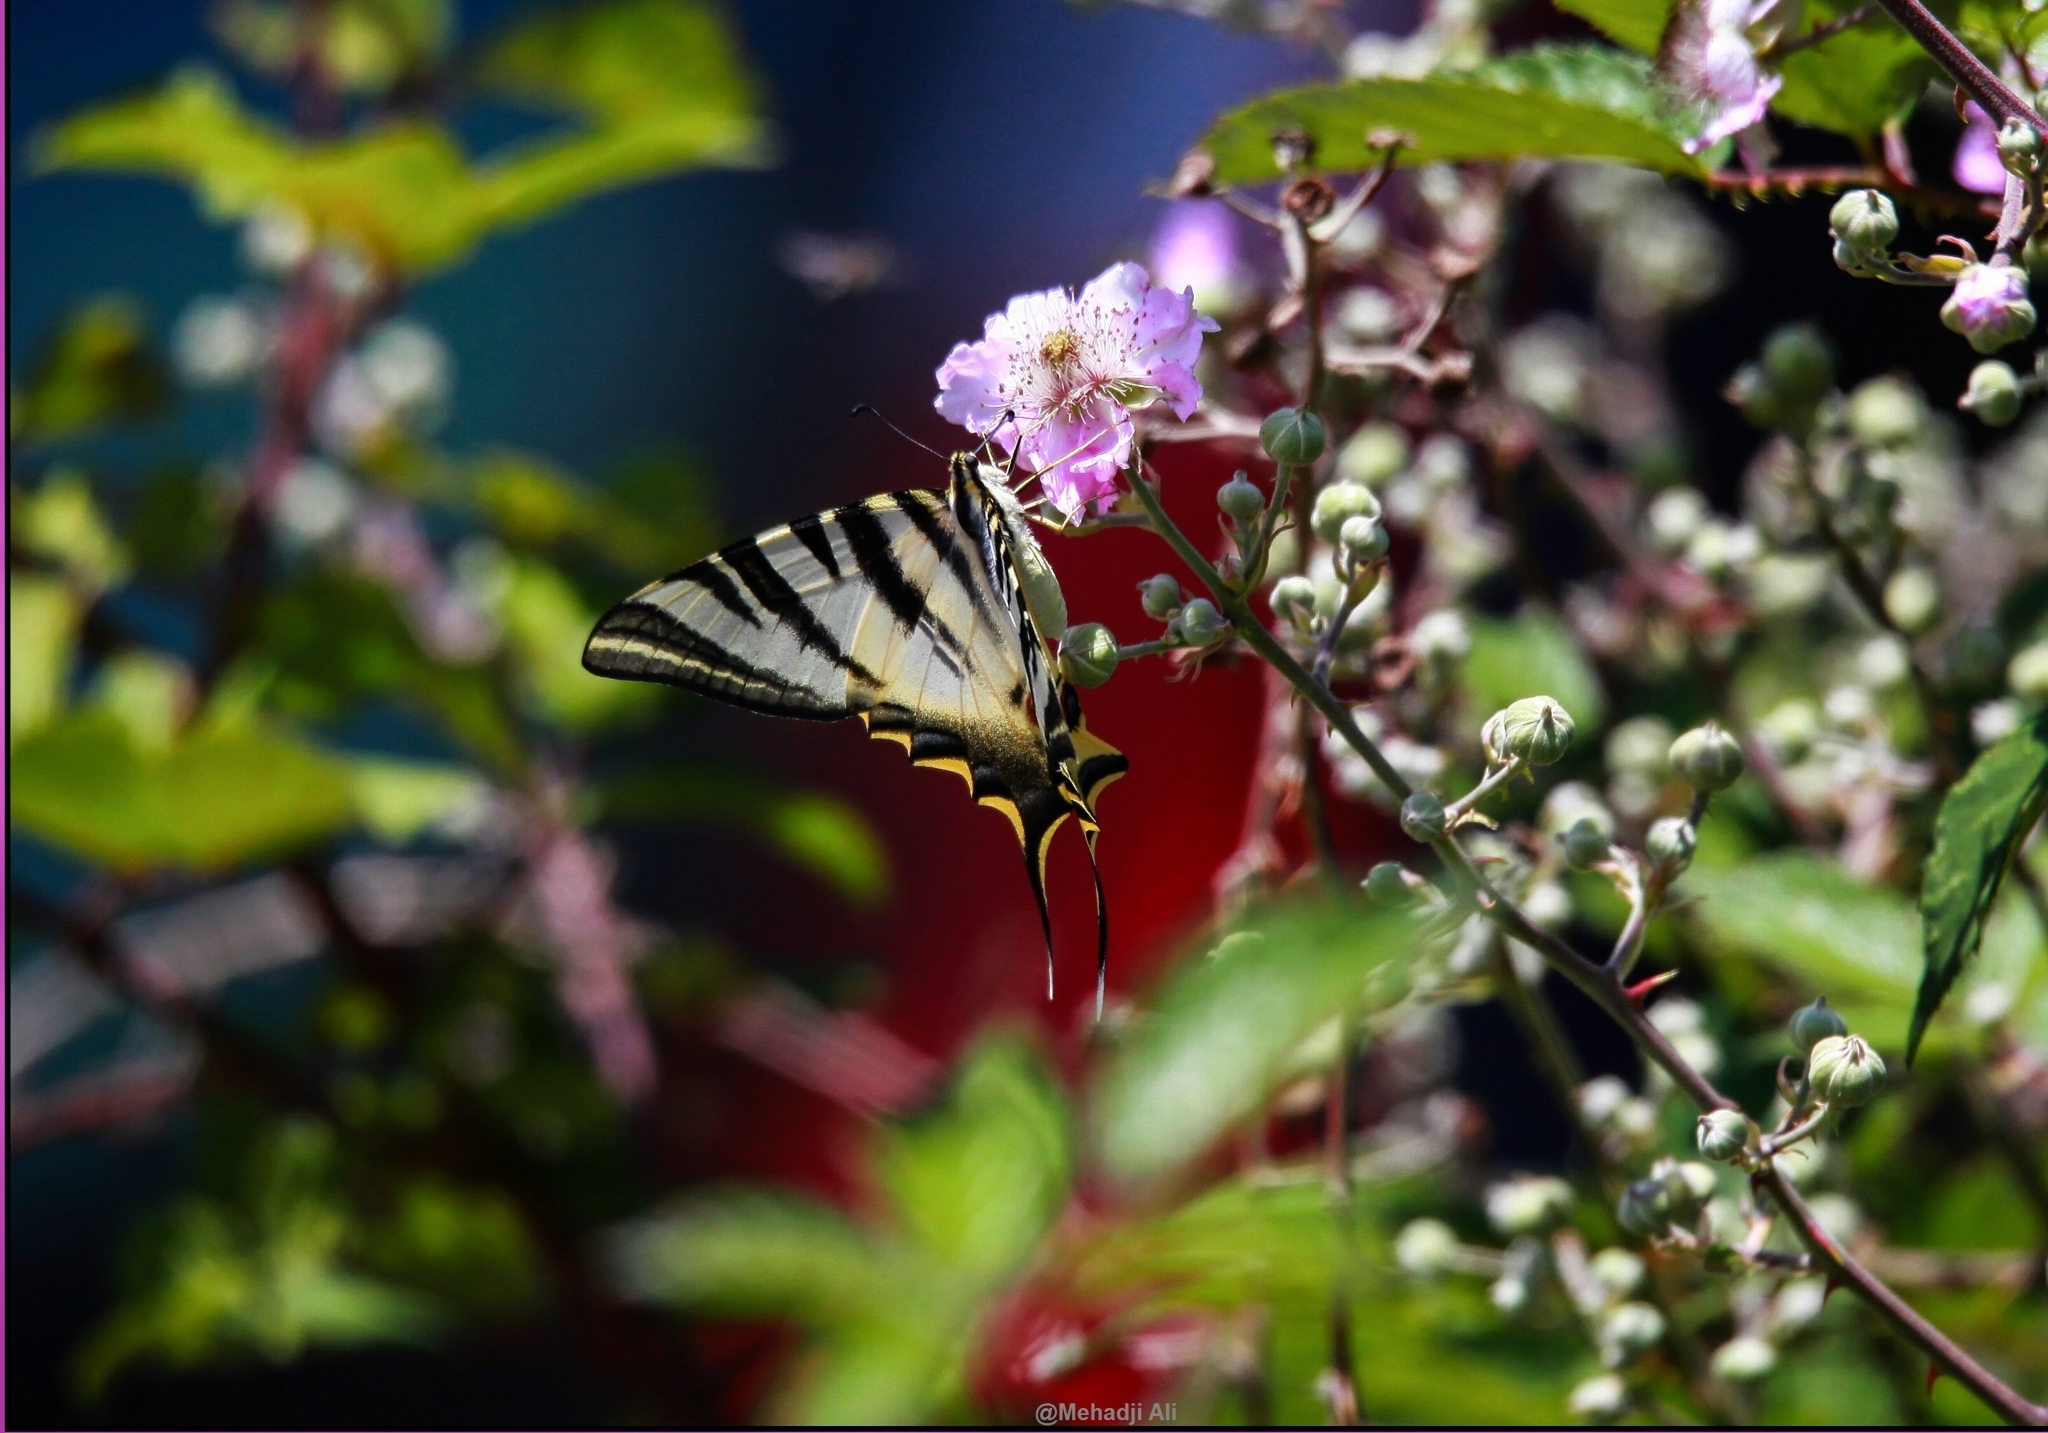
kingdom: Animalia
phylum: Arthropoda
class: Insecta
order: Lepidoptera
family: Papilionidae
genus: Iphiclides
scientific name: Iphiclides feisthamelii
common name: Iberian scarce swallowtail
